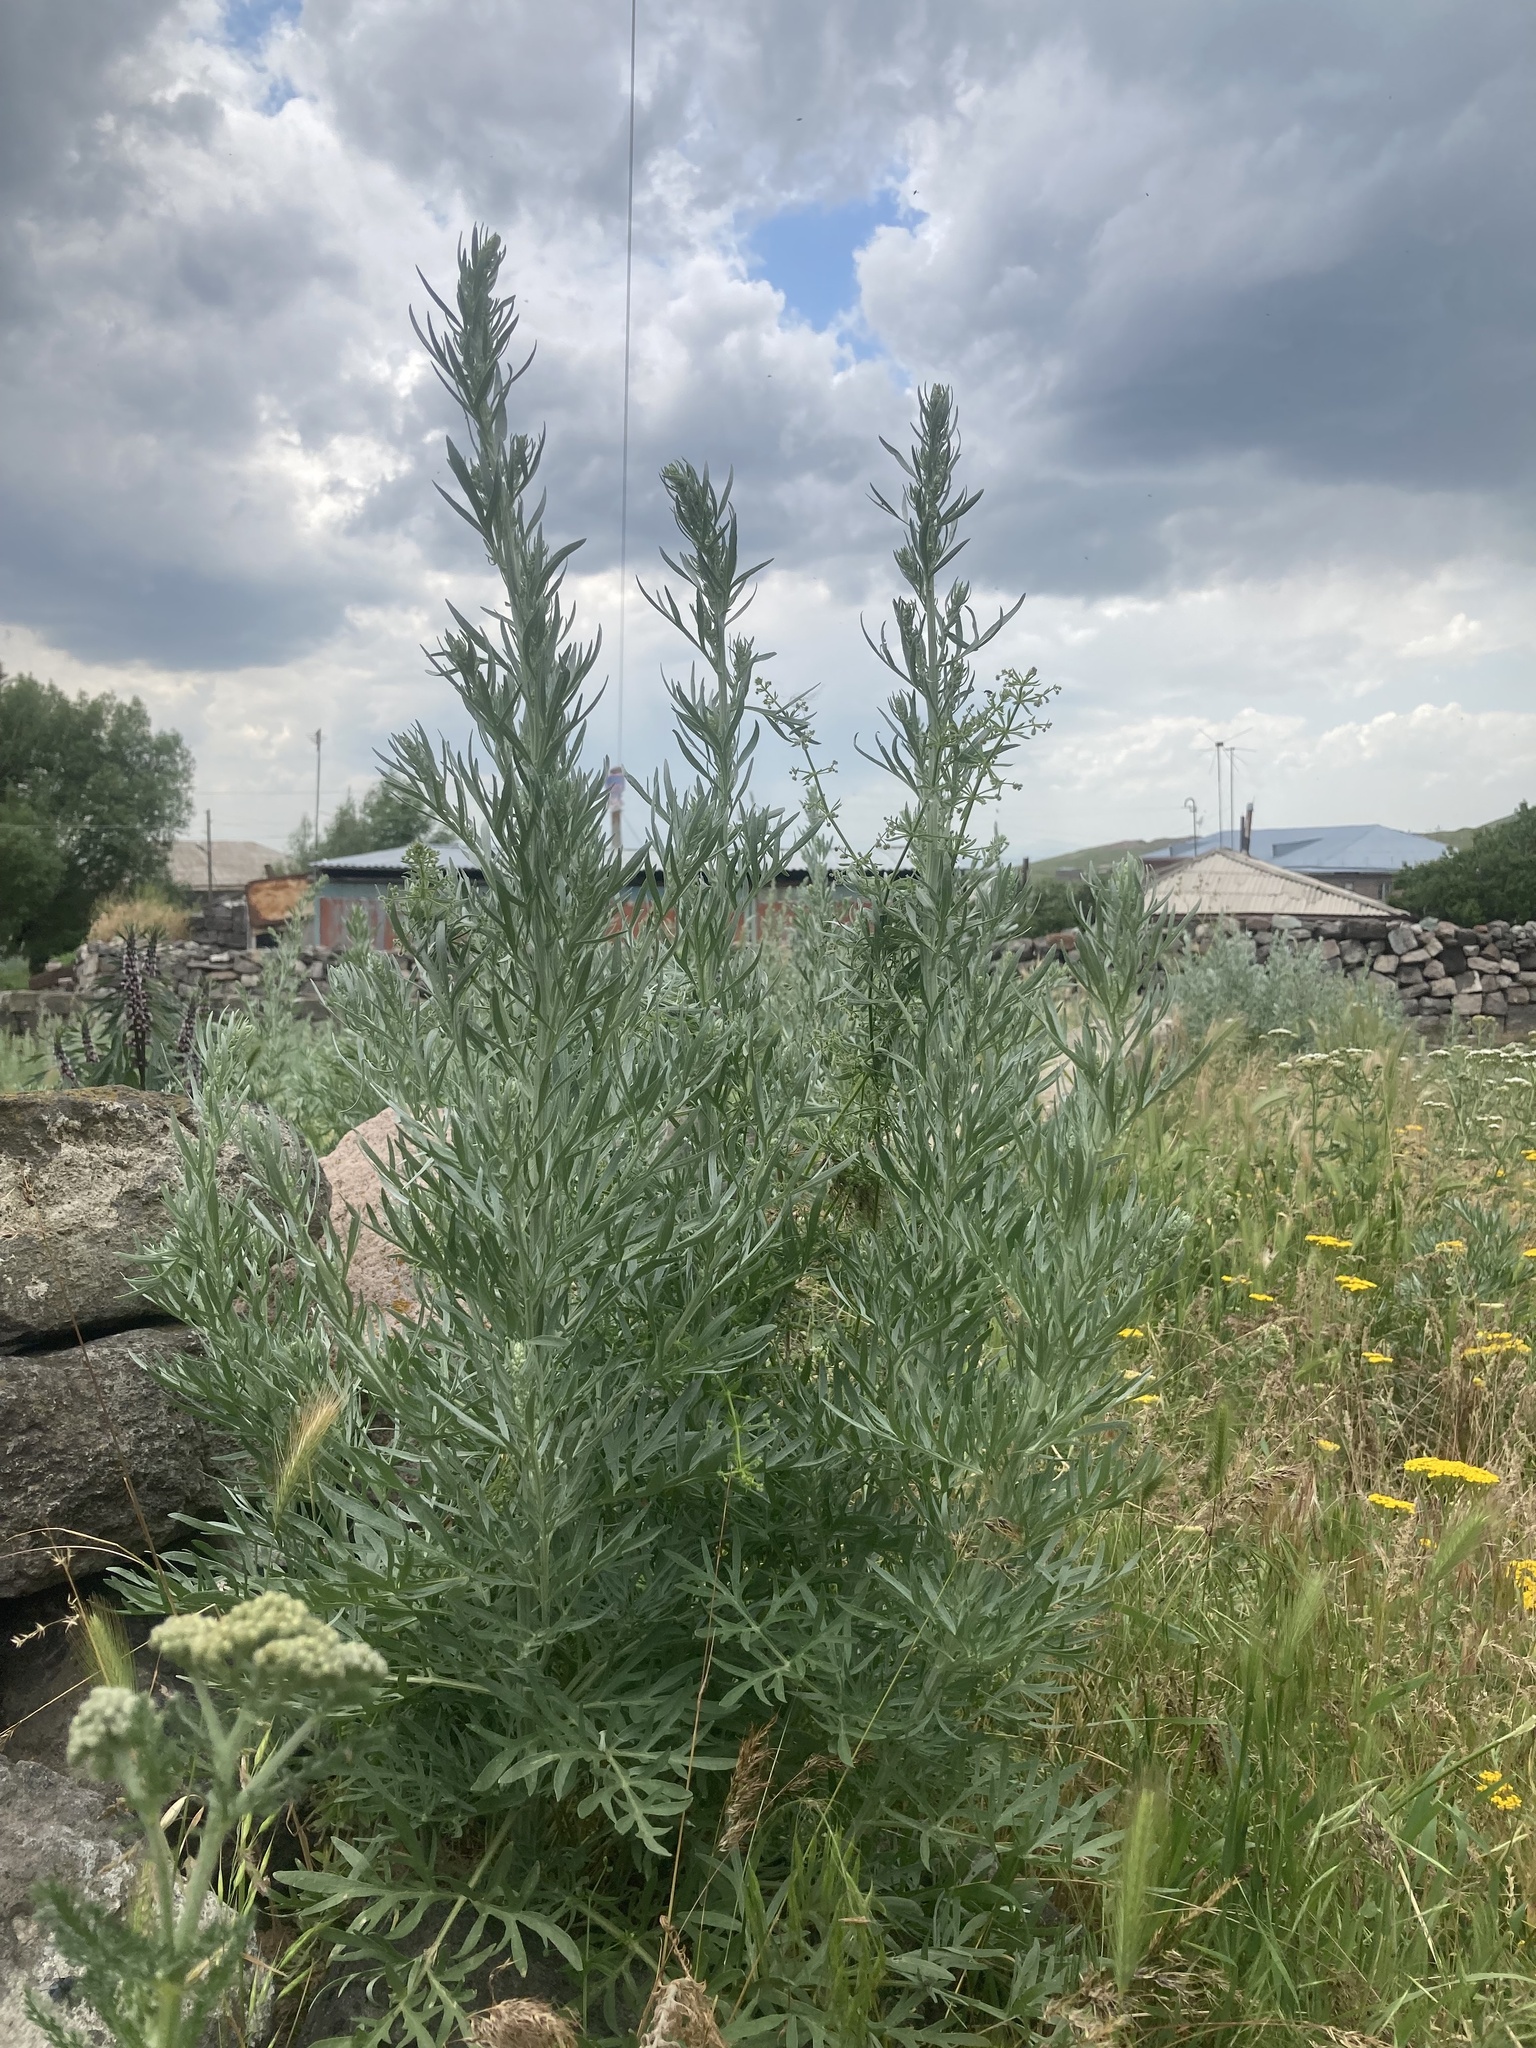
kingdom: Plantae
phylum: Tracheophyta
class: Magnoliopsida
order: Asterales
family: Asteraceae
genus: Artemisia
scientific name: Artemisia absinthium
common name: Wormwood
